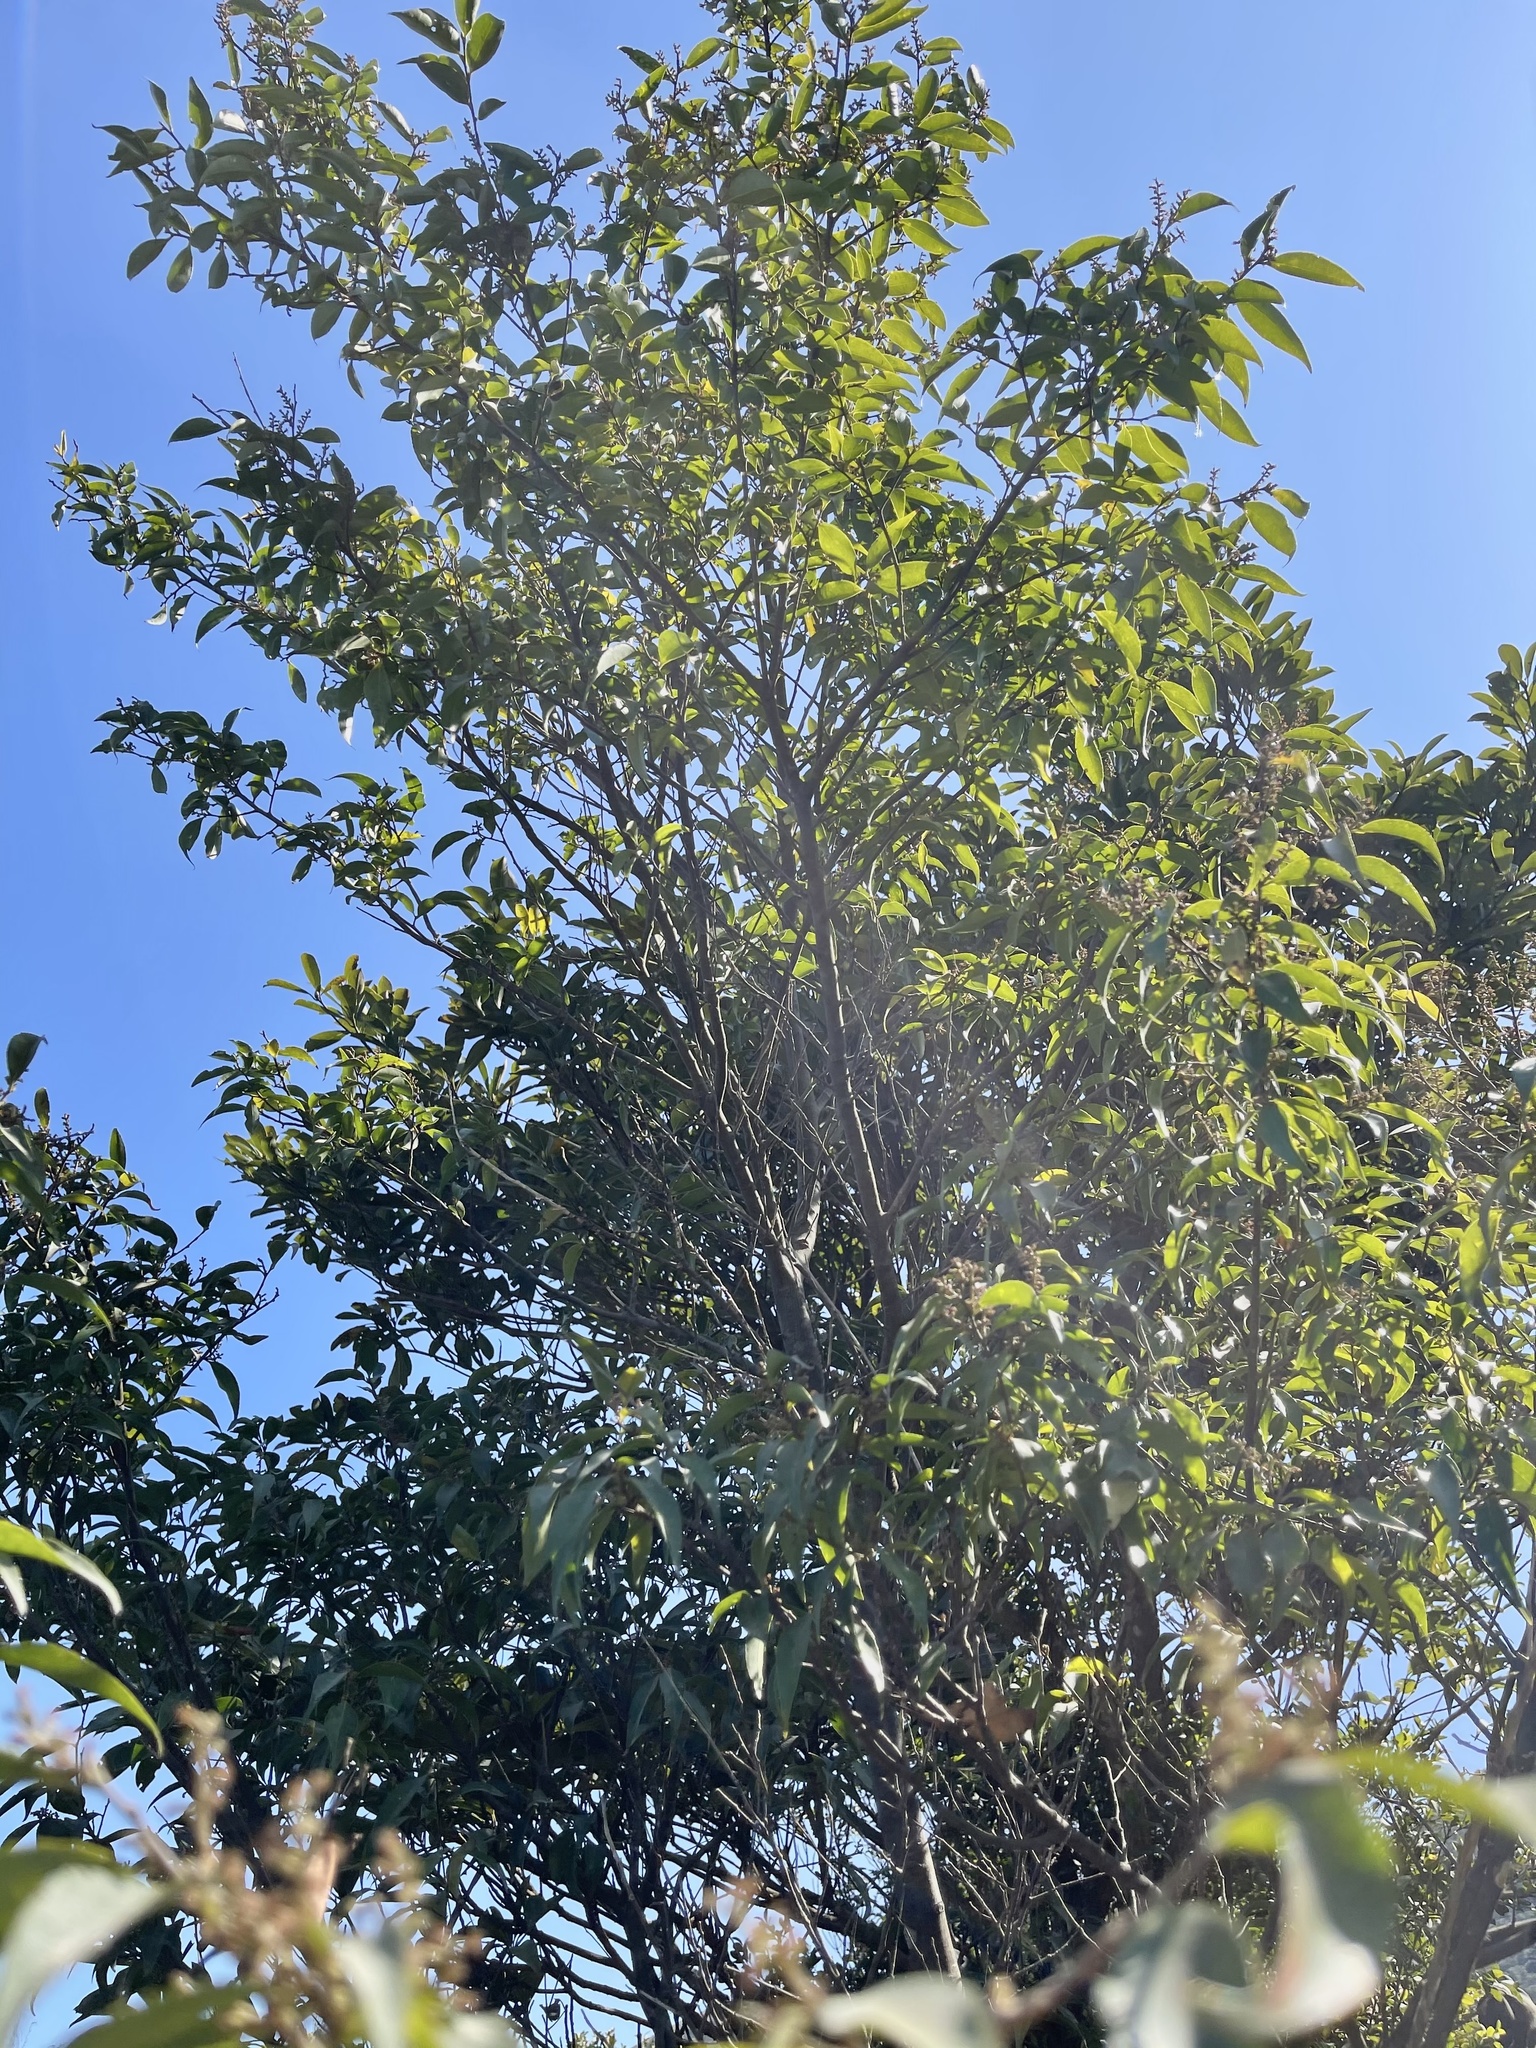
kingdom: Plantae
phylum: Tracheophyta
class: Magnoliopsida
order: Ericales
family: Symplocaceae
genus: Symplocos
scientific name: Symplocos lancifolia
